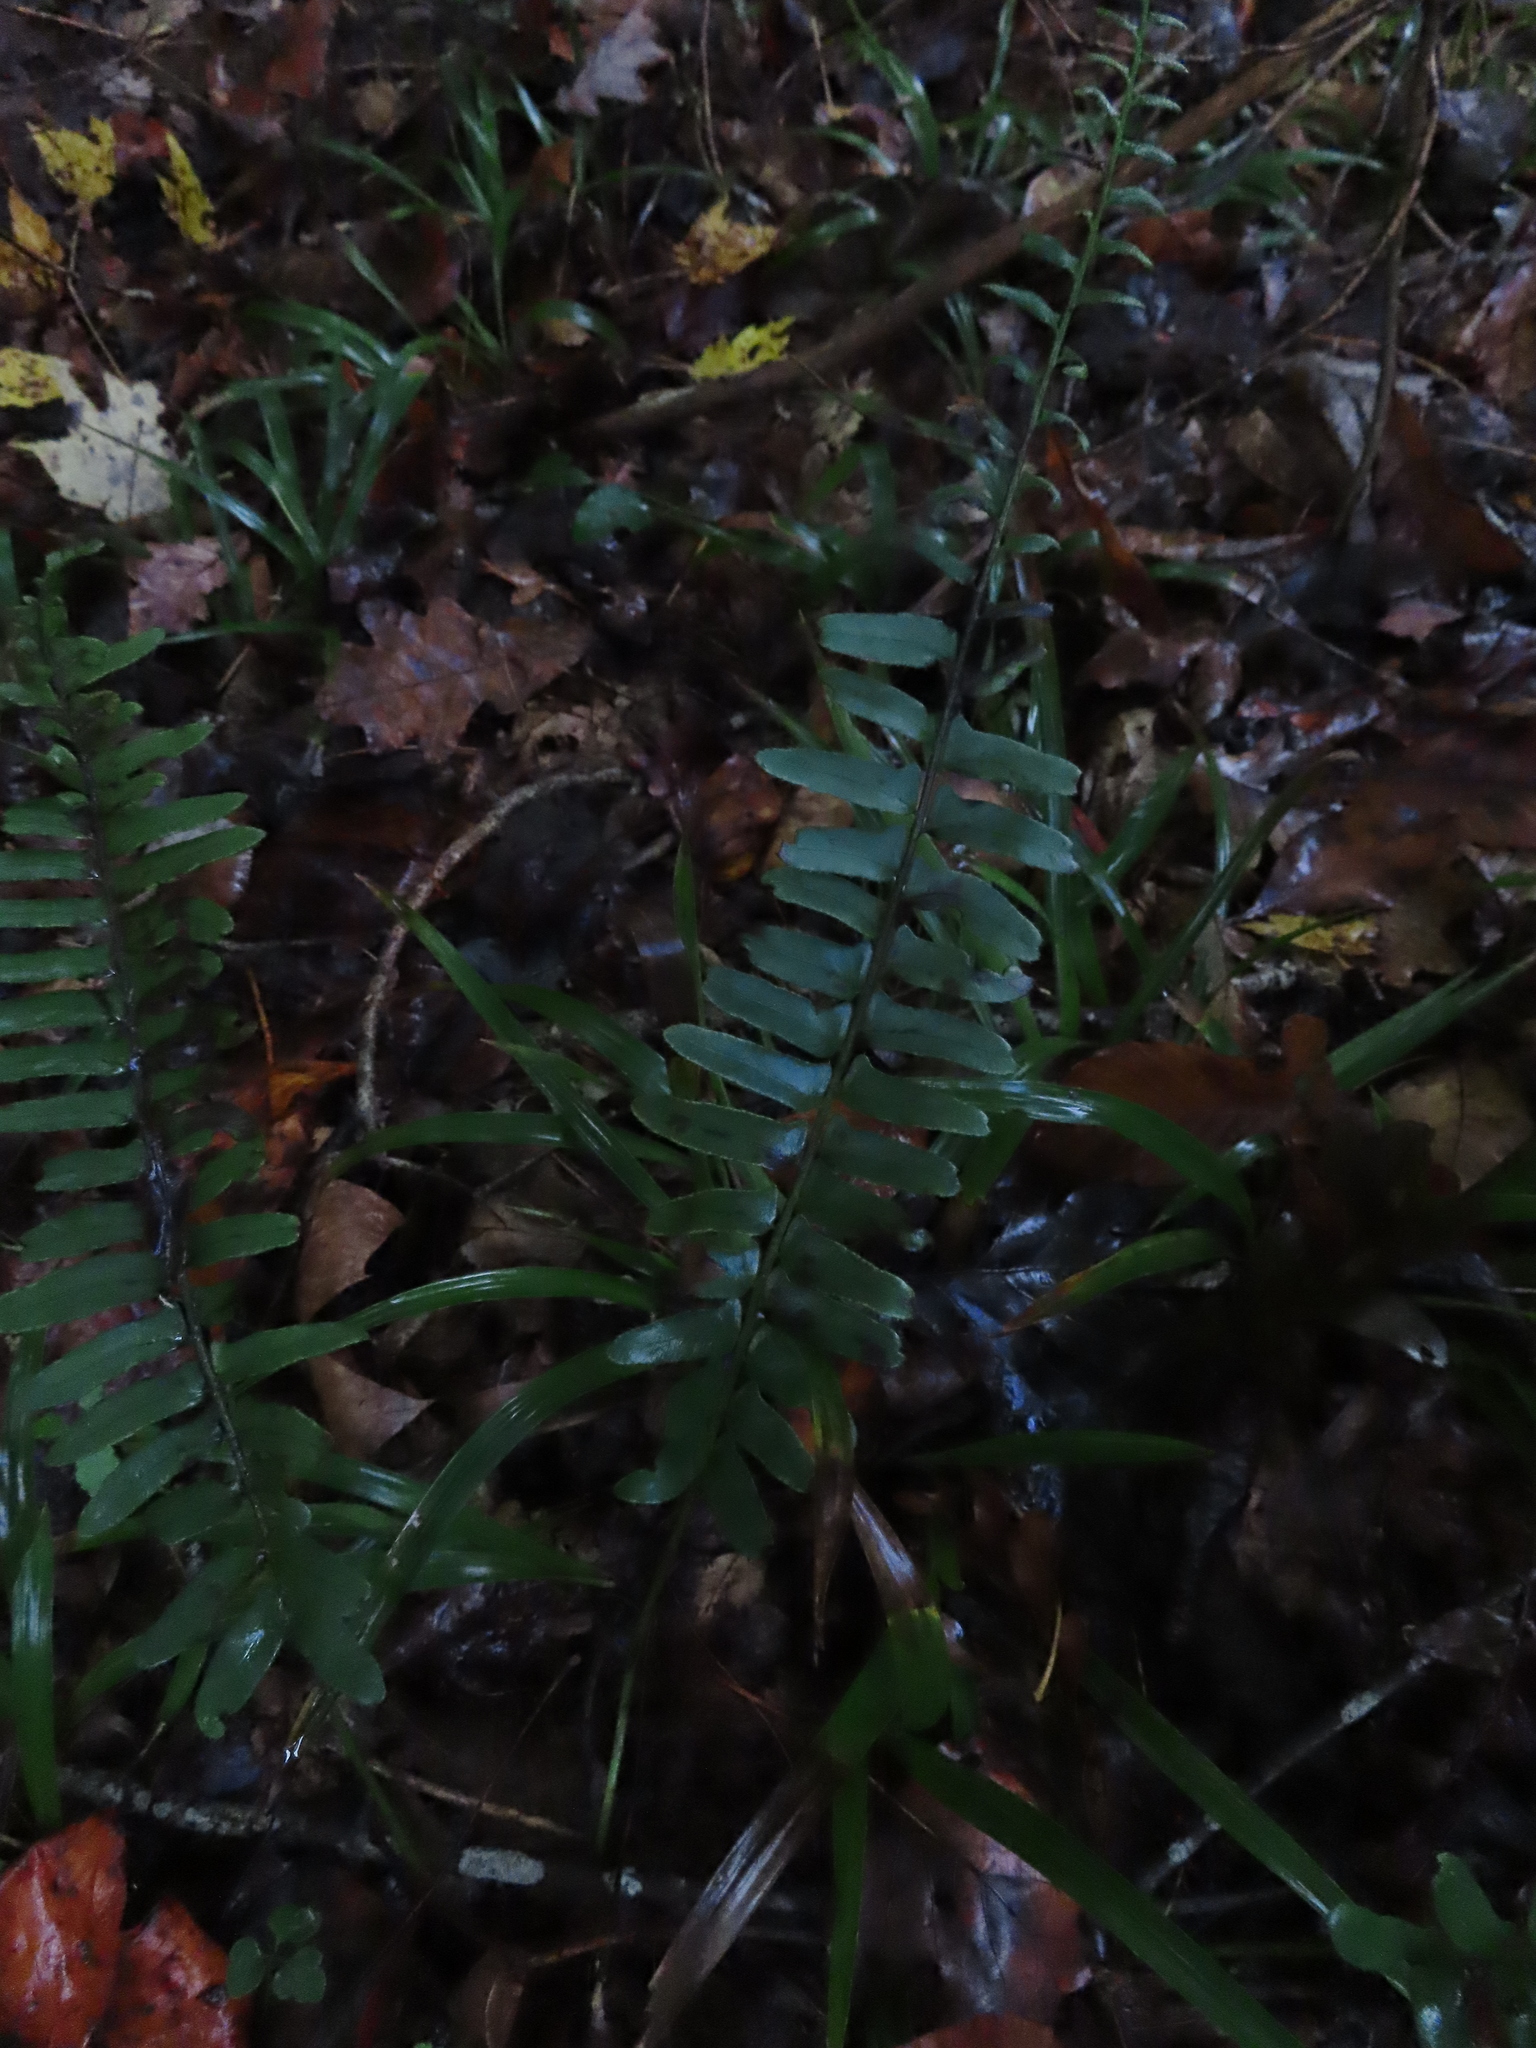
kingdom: Plantae
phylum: Tracheophyta
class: Polypodiopsida
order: Polypodiales
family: Dryopteridaceae
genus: Polystichum
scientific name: Polystichum acrostichoides
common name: Christmas fern
